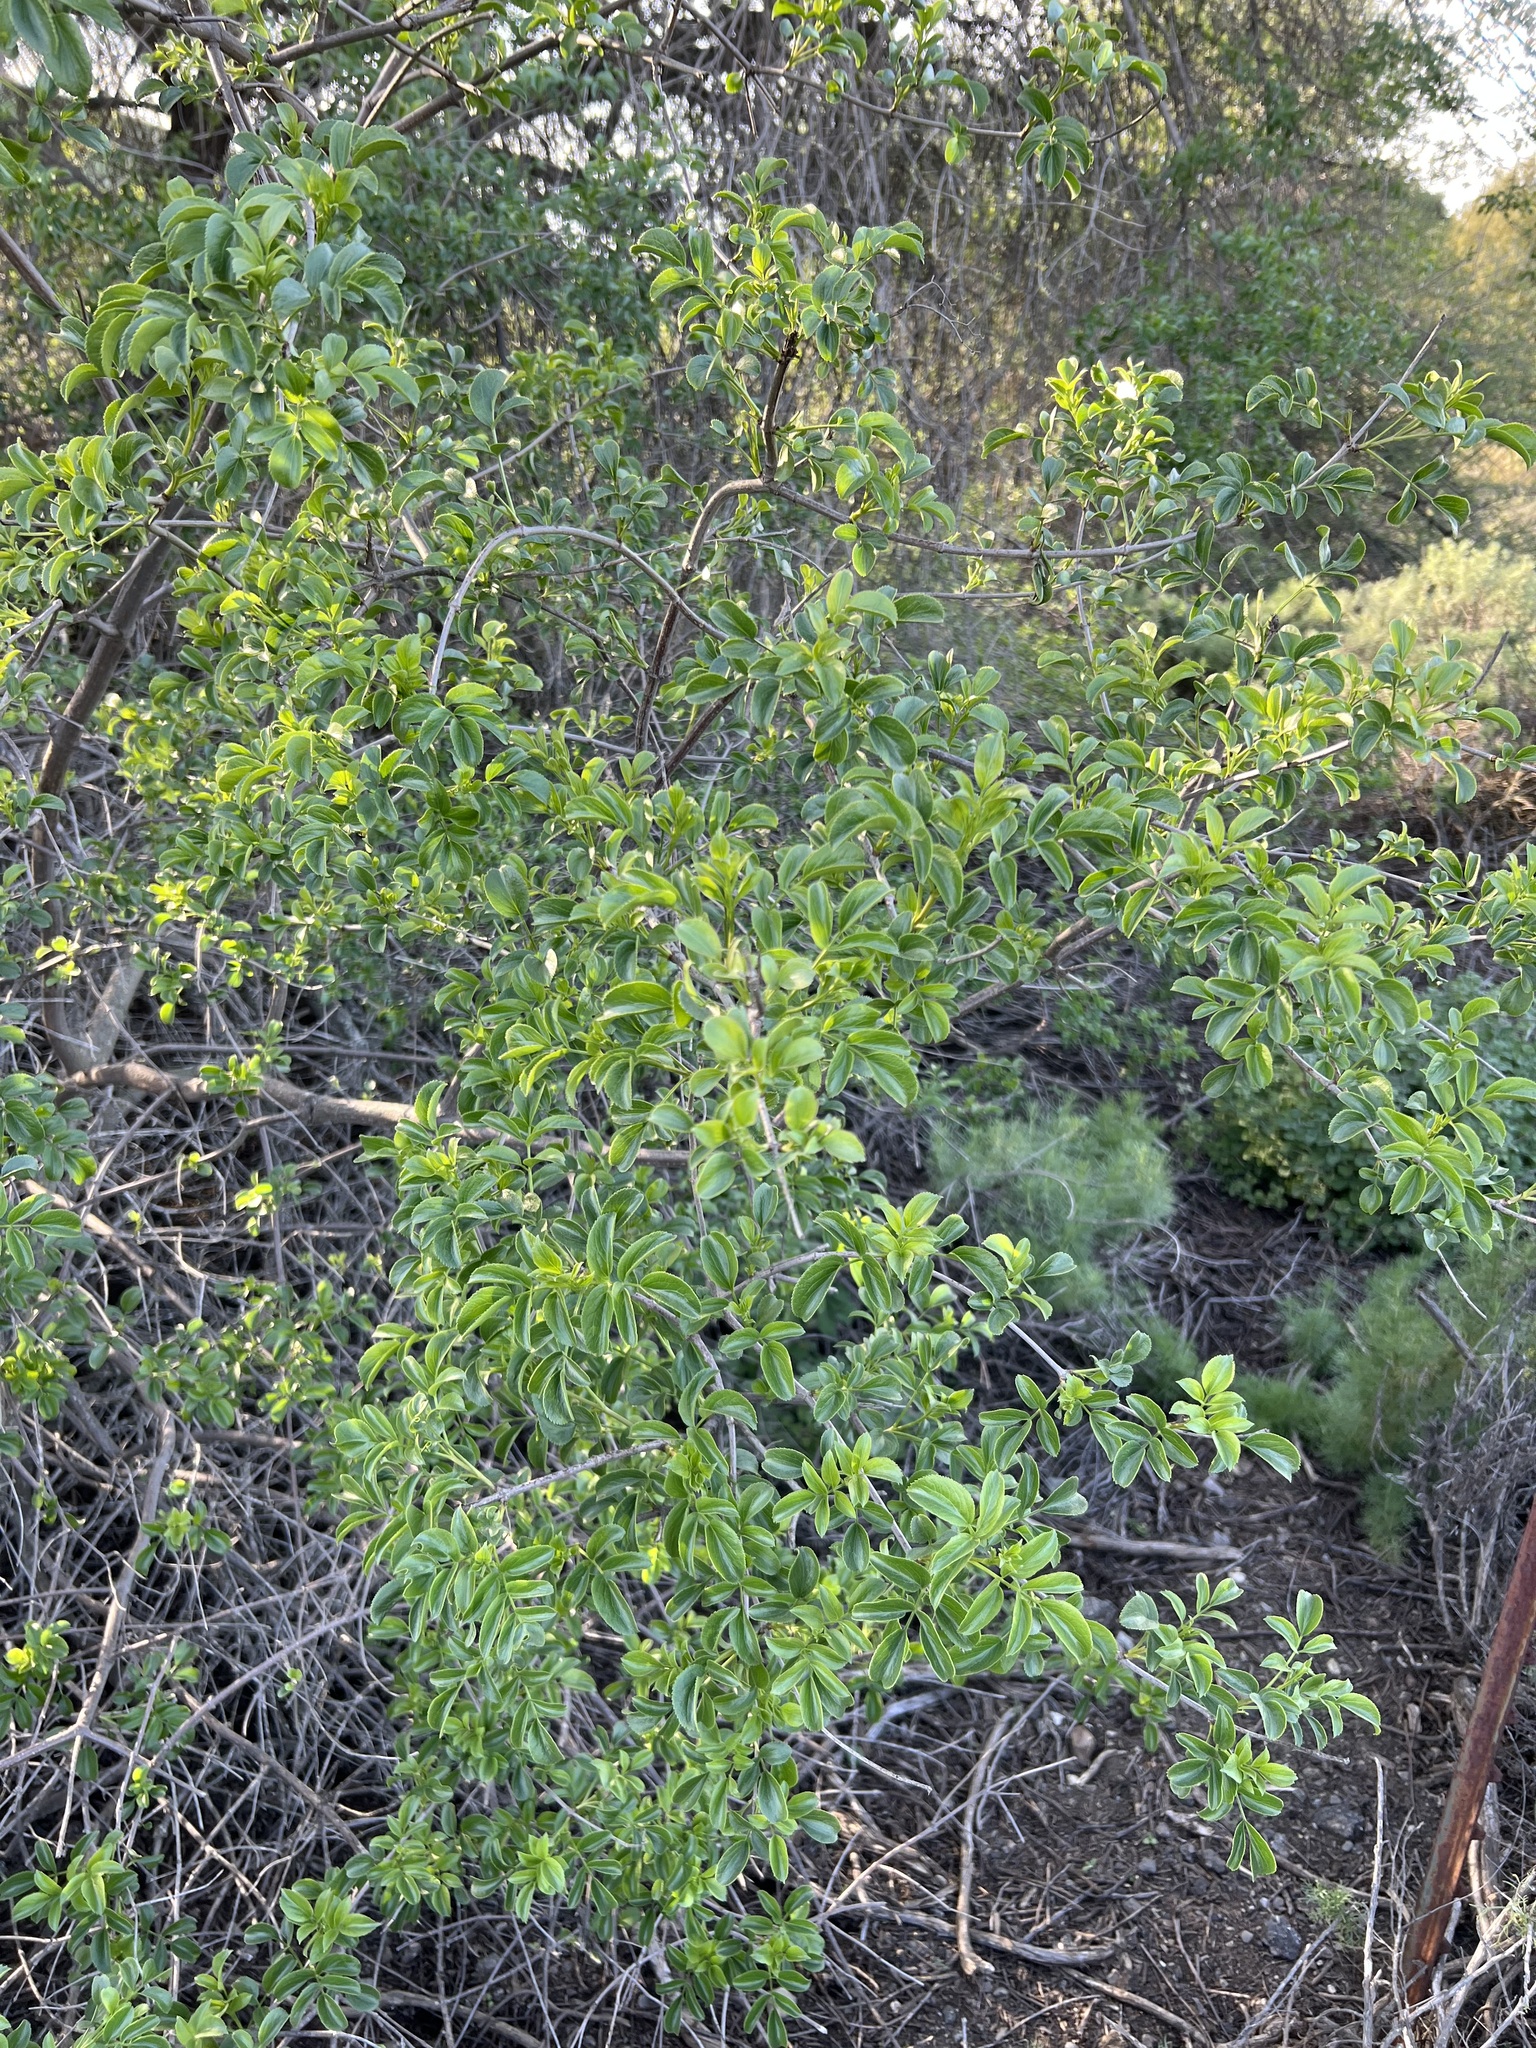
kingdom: Plantae
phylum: Tracheophyta
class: Magnoliopsida
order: Dipsacales
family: Viburnaceae
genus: Sambucus
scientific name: Sambucus cerulea
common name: Blue elder
